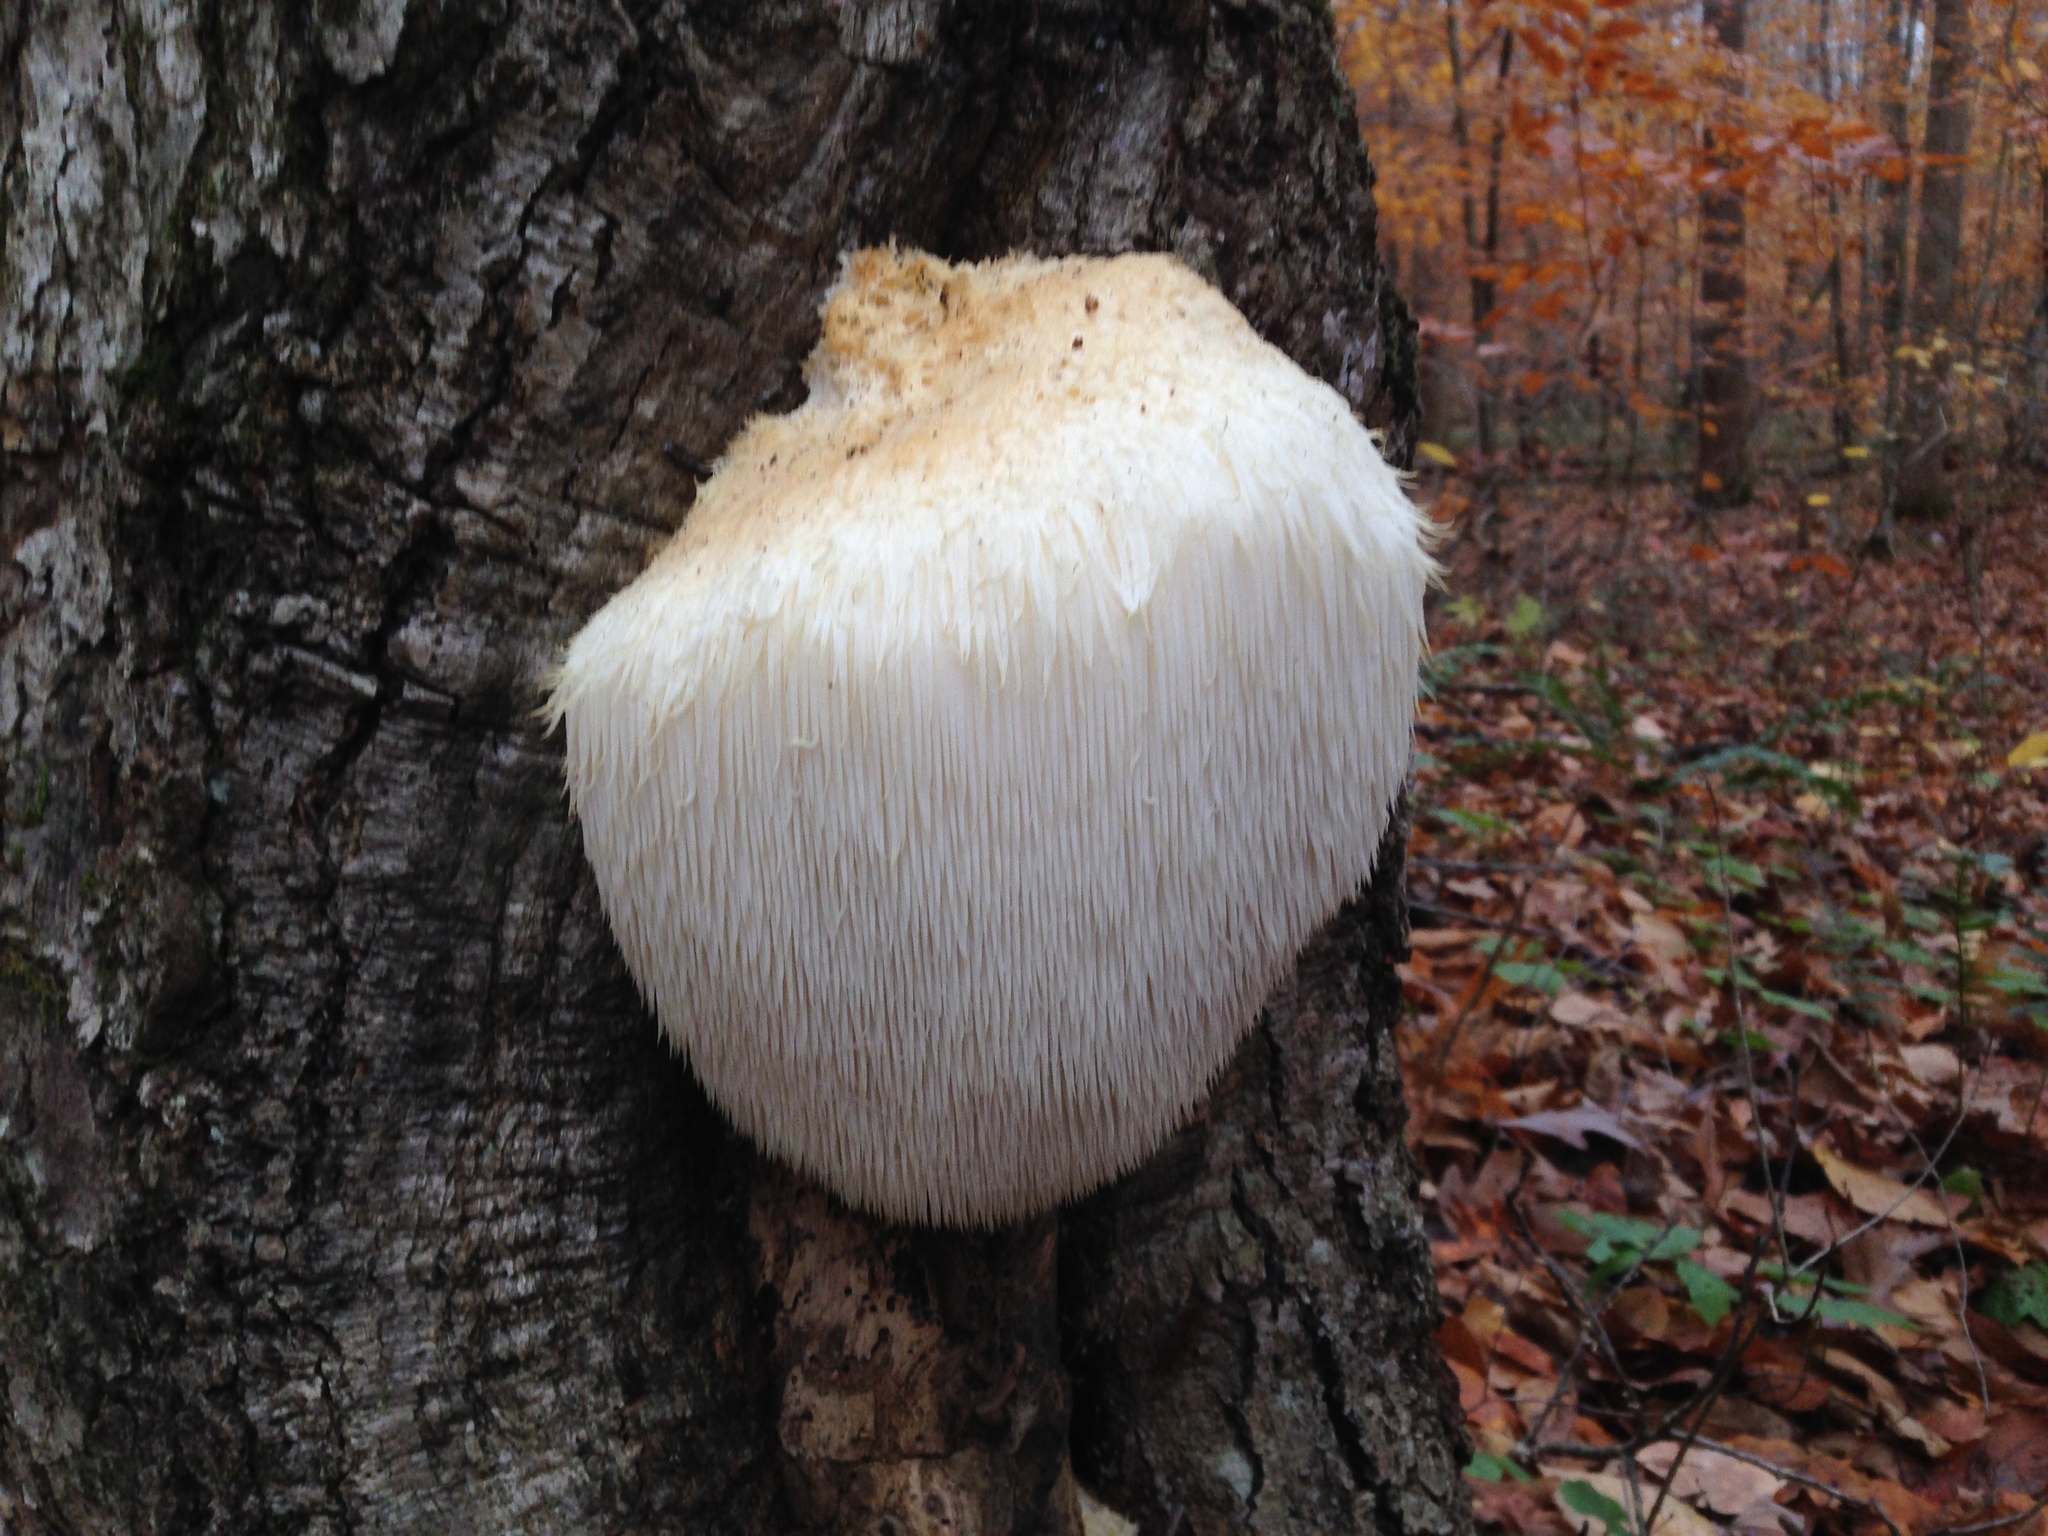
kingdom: Fungi
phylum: Basidiomycota
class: Agaricomycetes
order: Russulales
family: Hericiaceae
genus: Hericium
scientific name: Hericium erinaceus
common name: Bearded tooth
